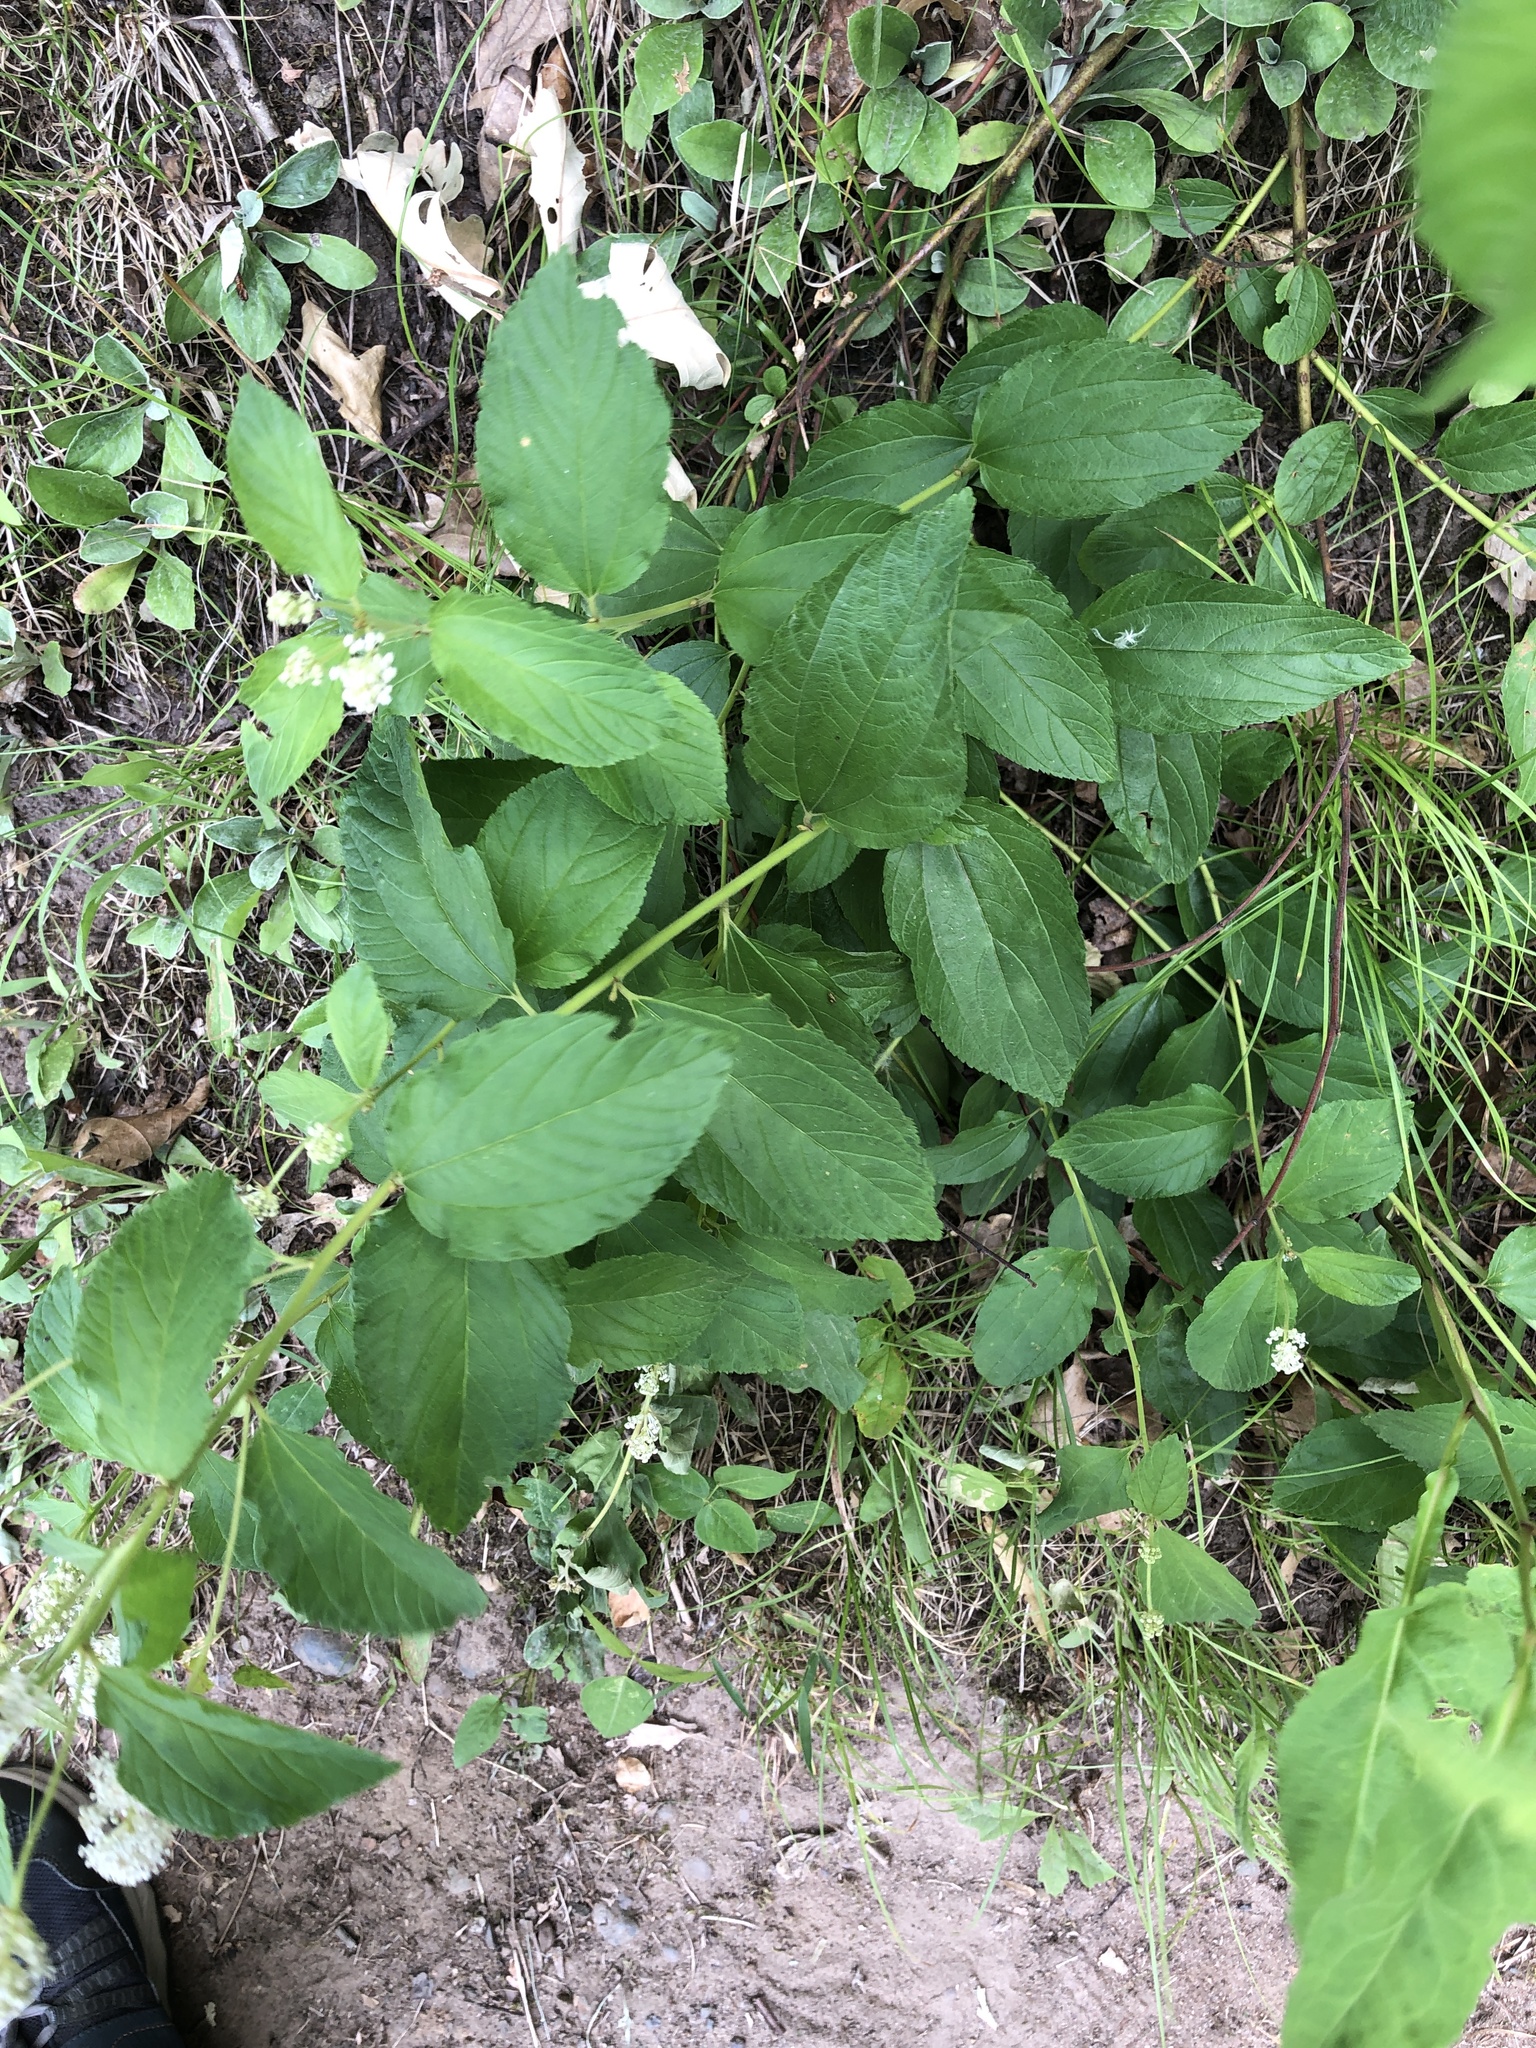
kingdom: Plantae
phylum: Tracheophyta
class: Magnoliopsida
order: Rosales
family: Rhamnaceae
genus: Ceanothus
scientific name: Ceanothus americanus
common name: Redroot
